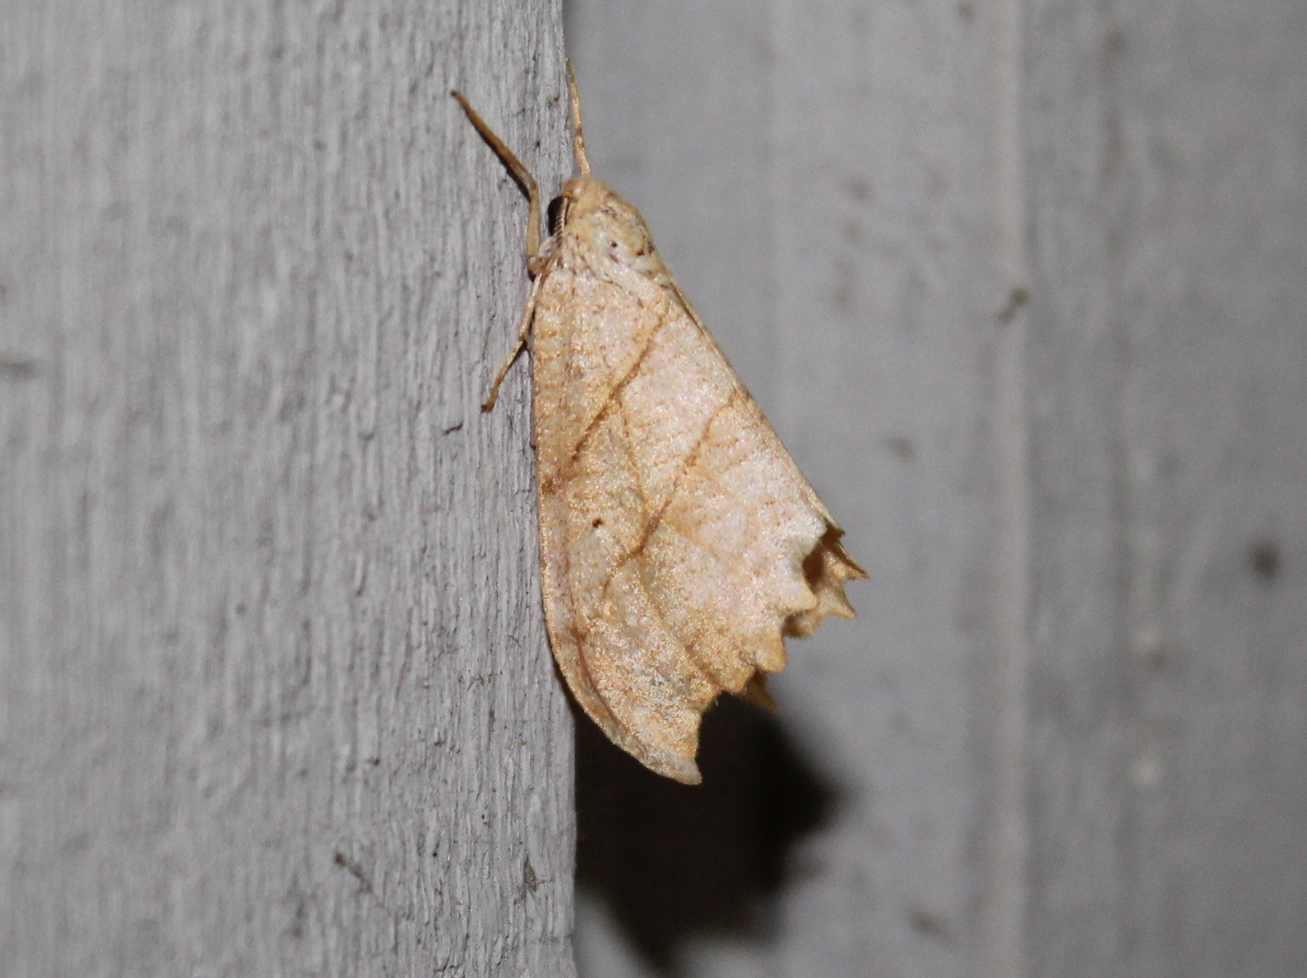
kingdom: Animalia
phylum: Arthropoda
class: Insecta
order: Lepidoptera
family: Drepanidae
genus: Falcaria
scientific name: Falcaria bilineata
